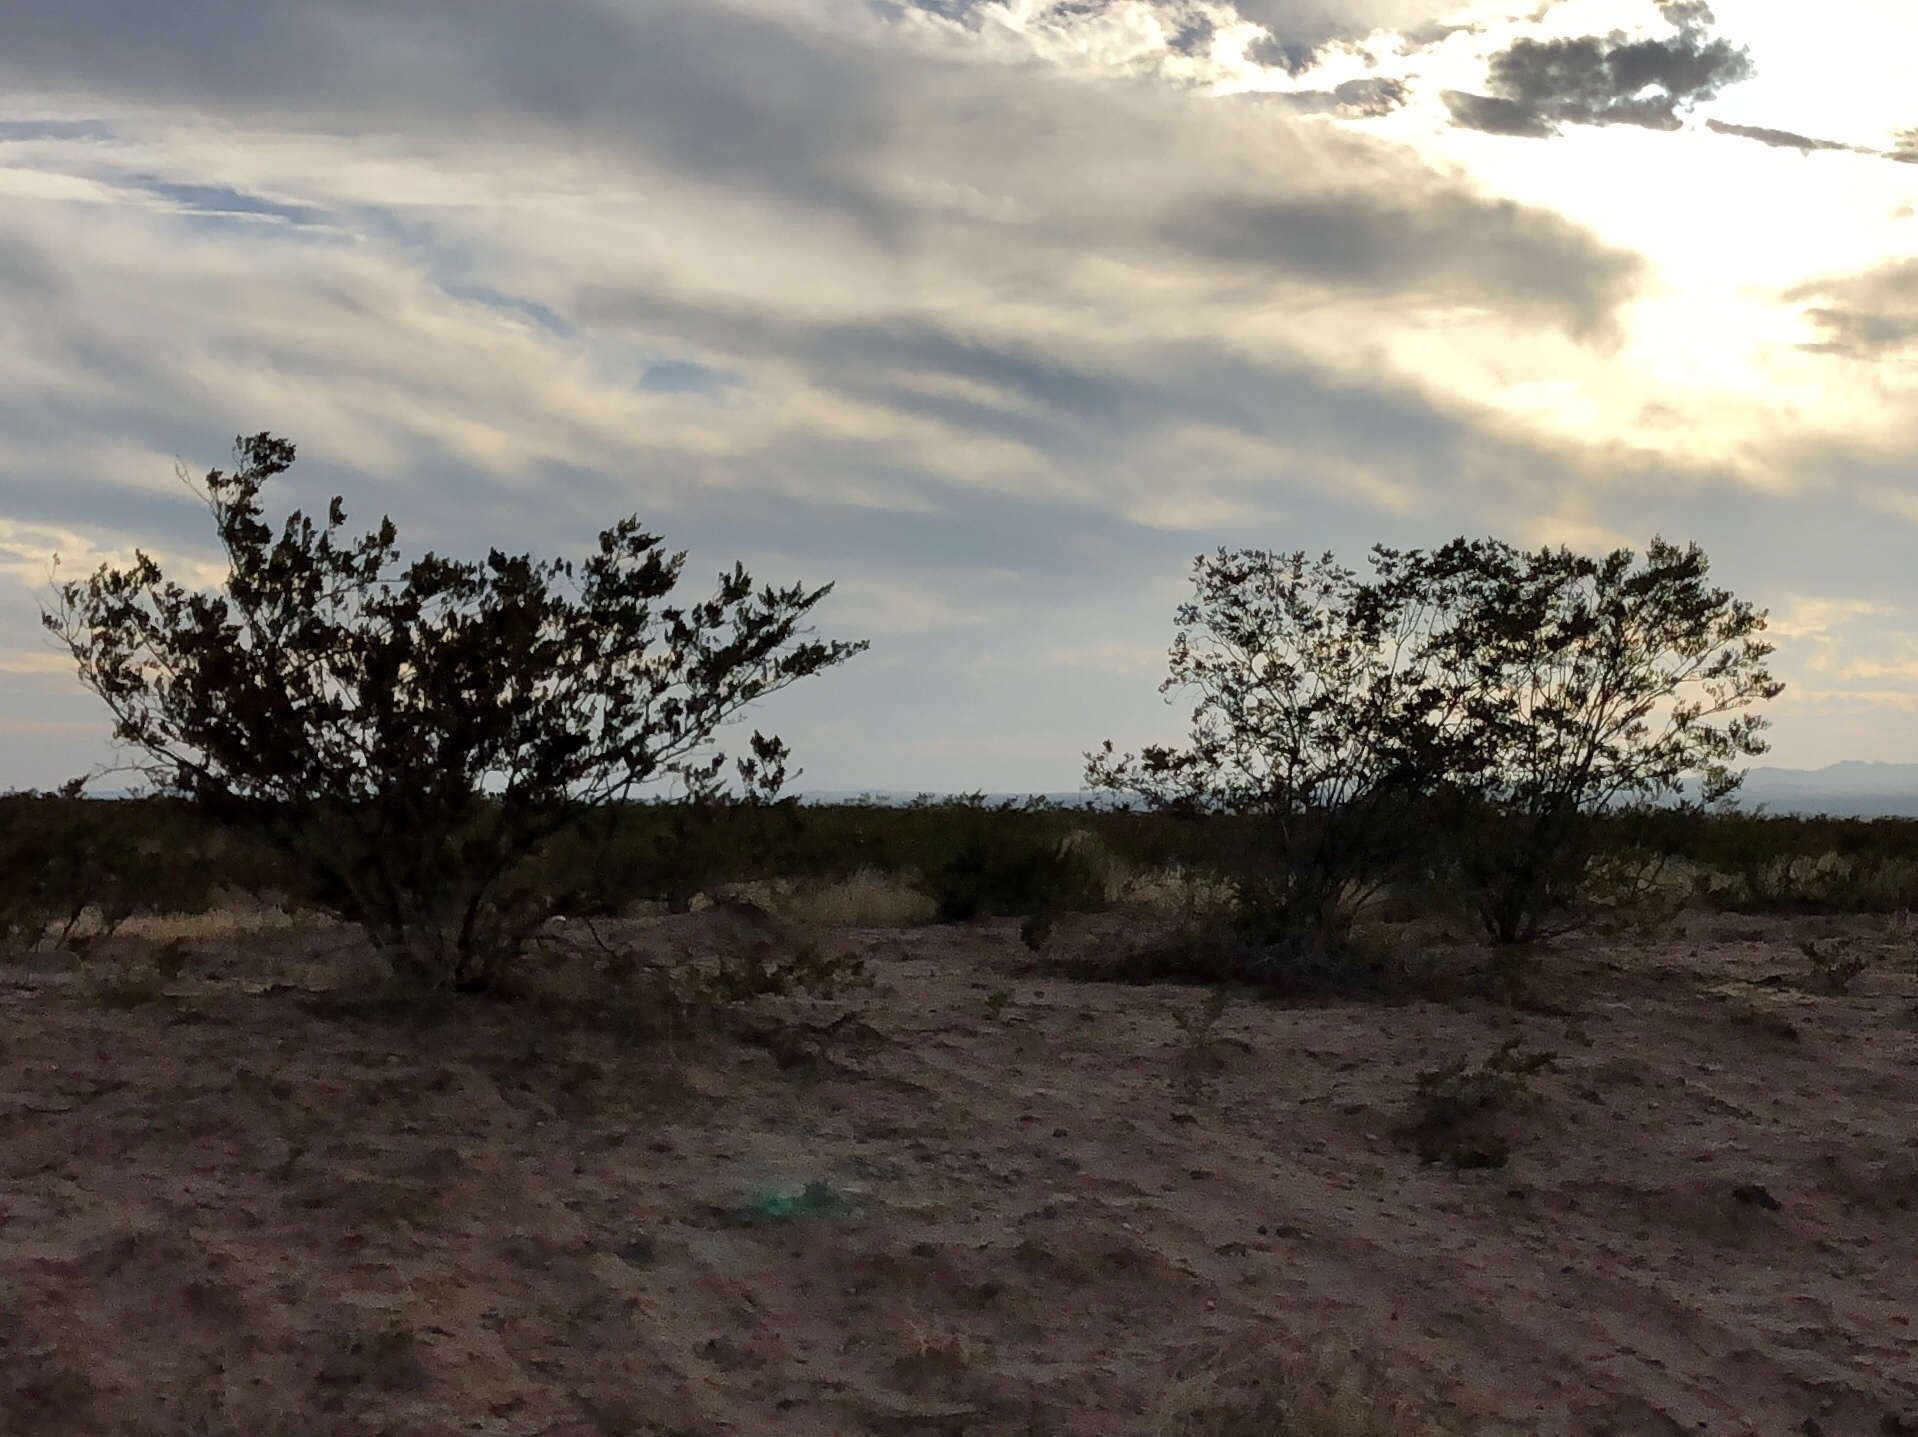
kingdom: Plantae
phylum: Tracheophyta
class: Magnoliopsida
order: Zygophyllales
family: Zygophyllaceae
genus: Larrea
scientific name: Larrea tridentata
